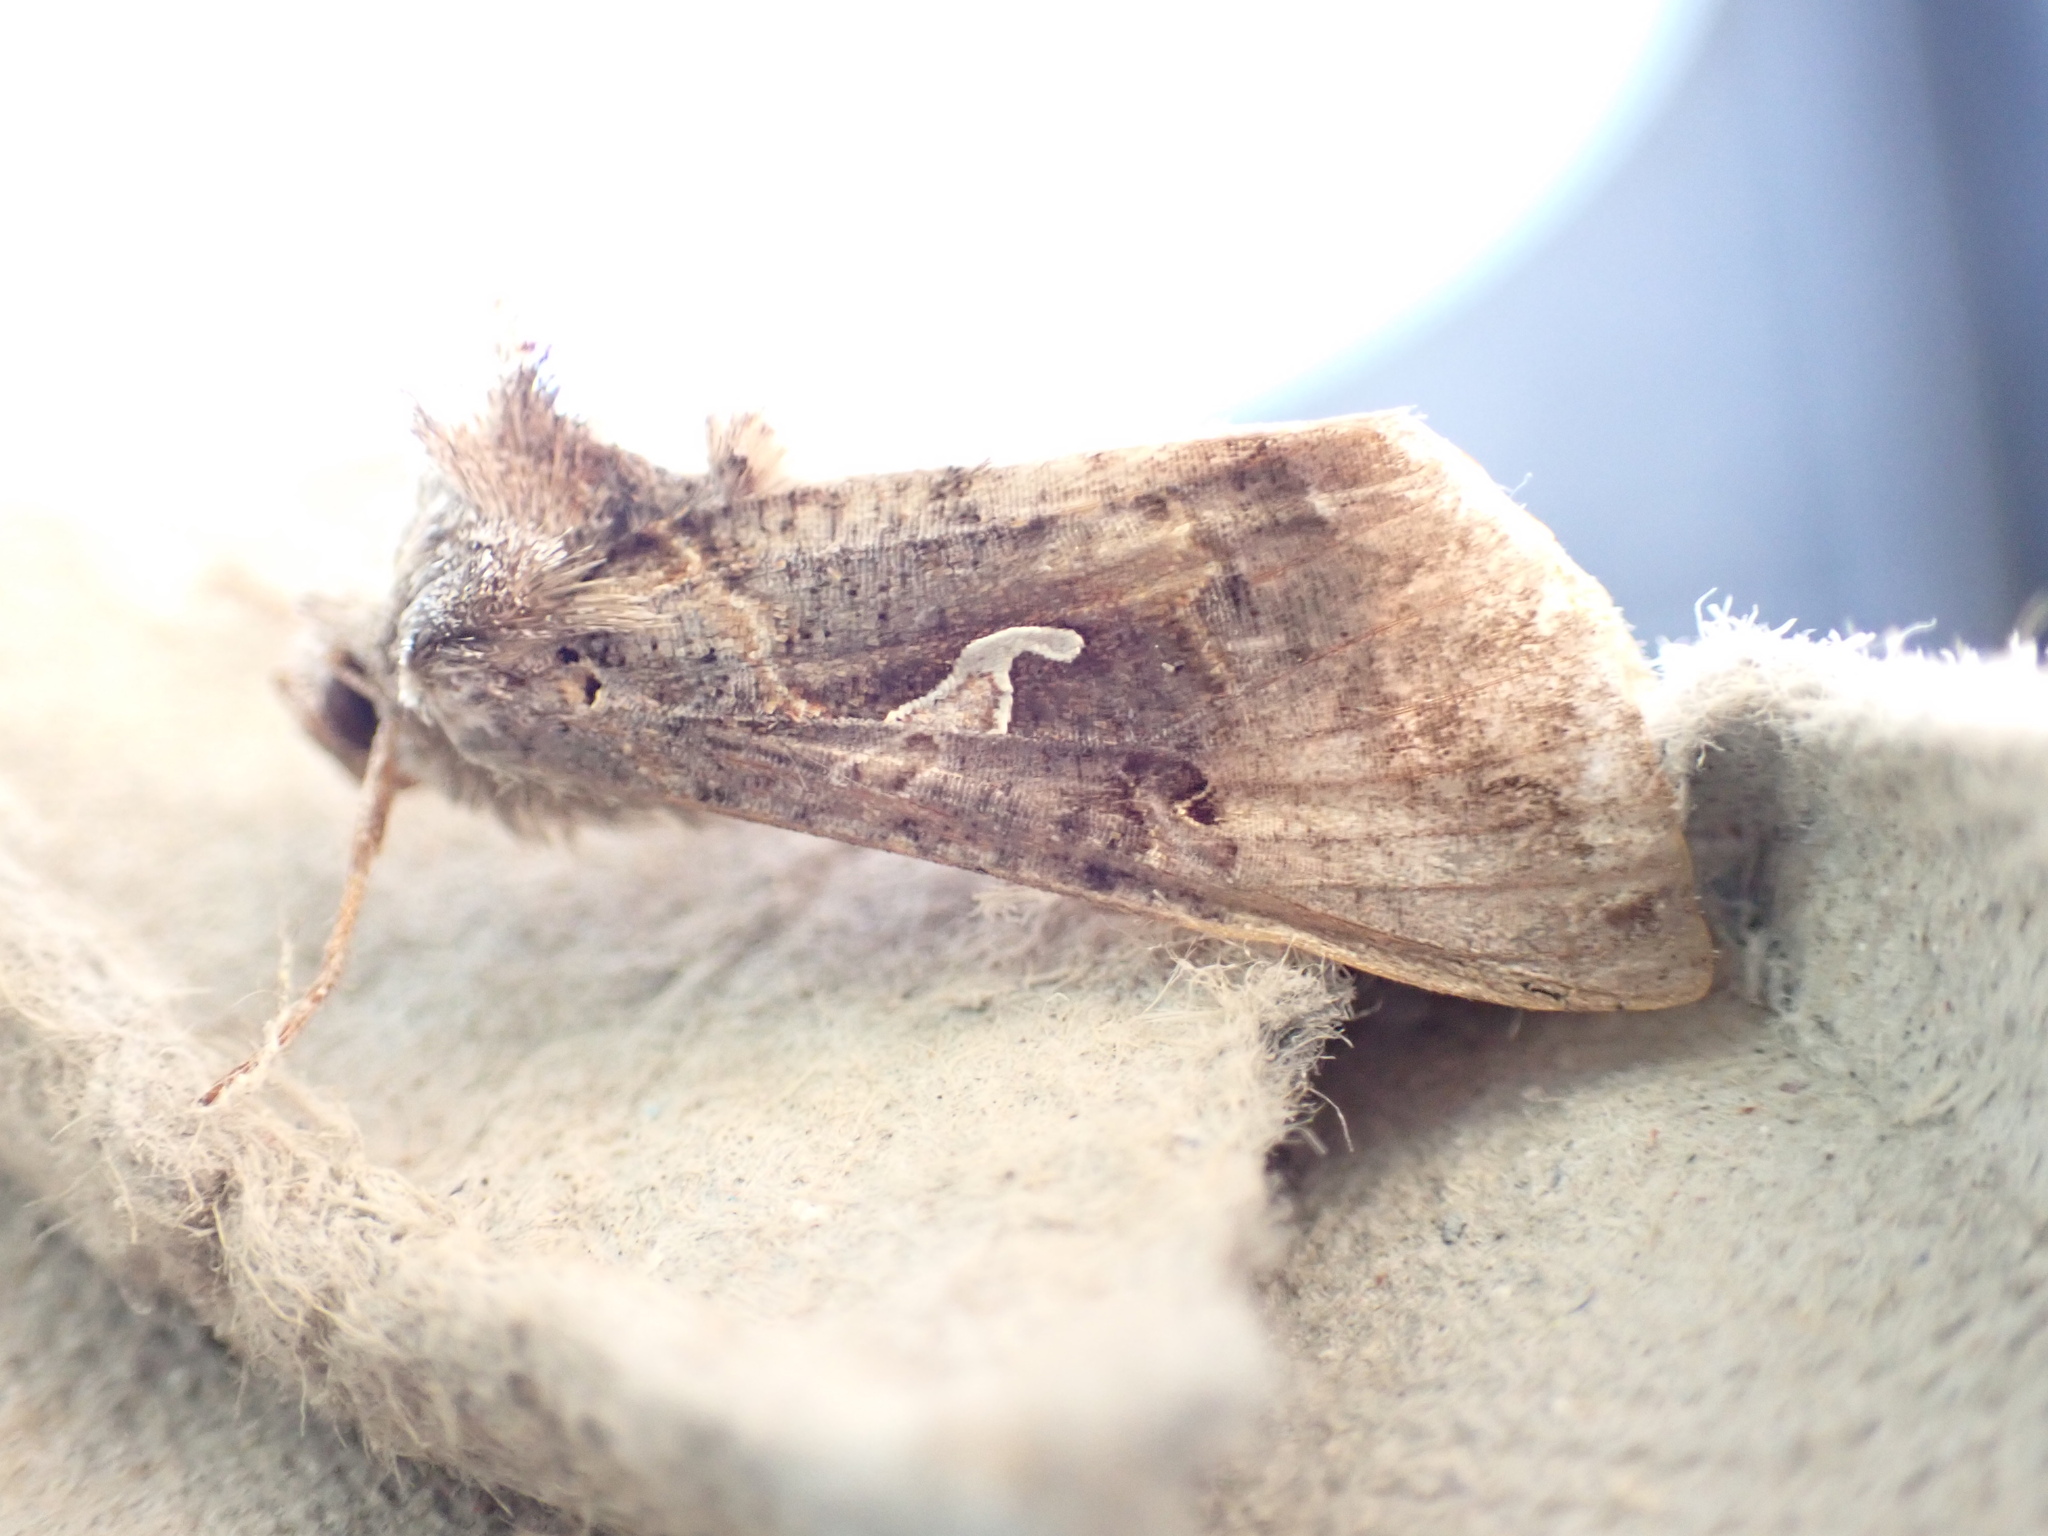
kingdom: Animalia
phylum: Arthropoda
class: Insecta
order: Lepidoptera
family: Noctuidae
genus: Autographa
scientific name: Autographa gamma
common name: Silver y
